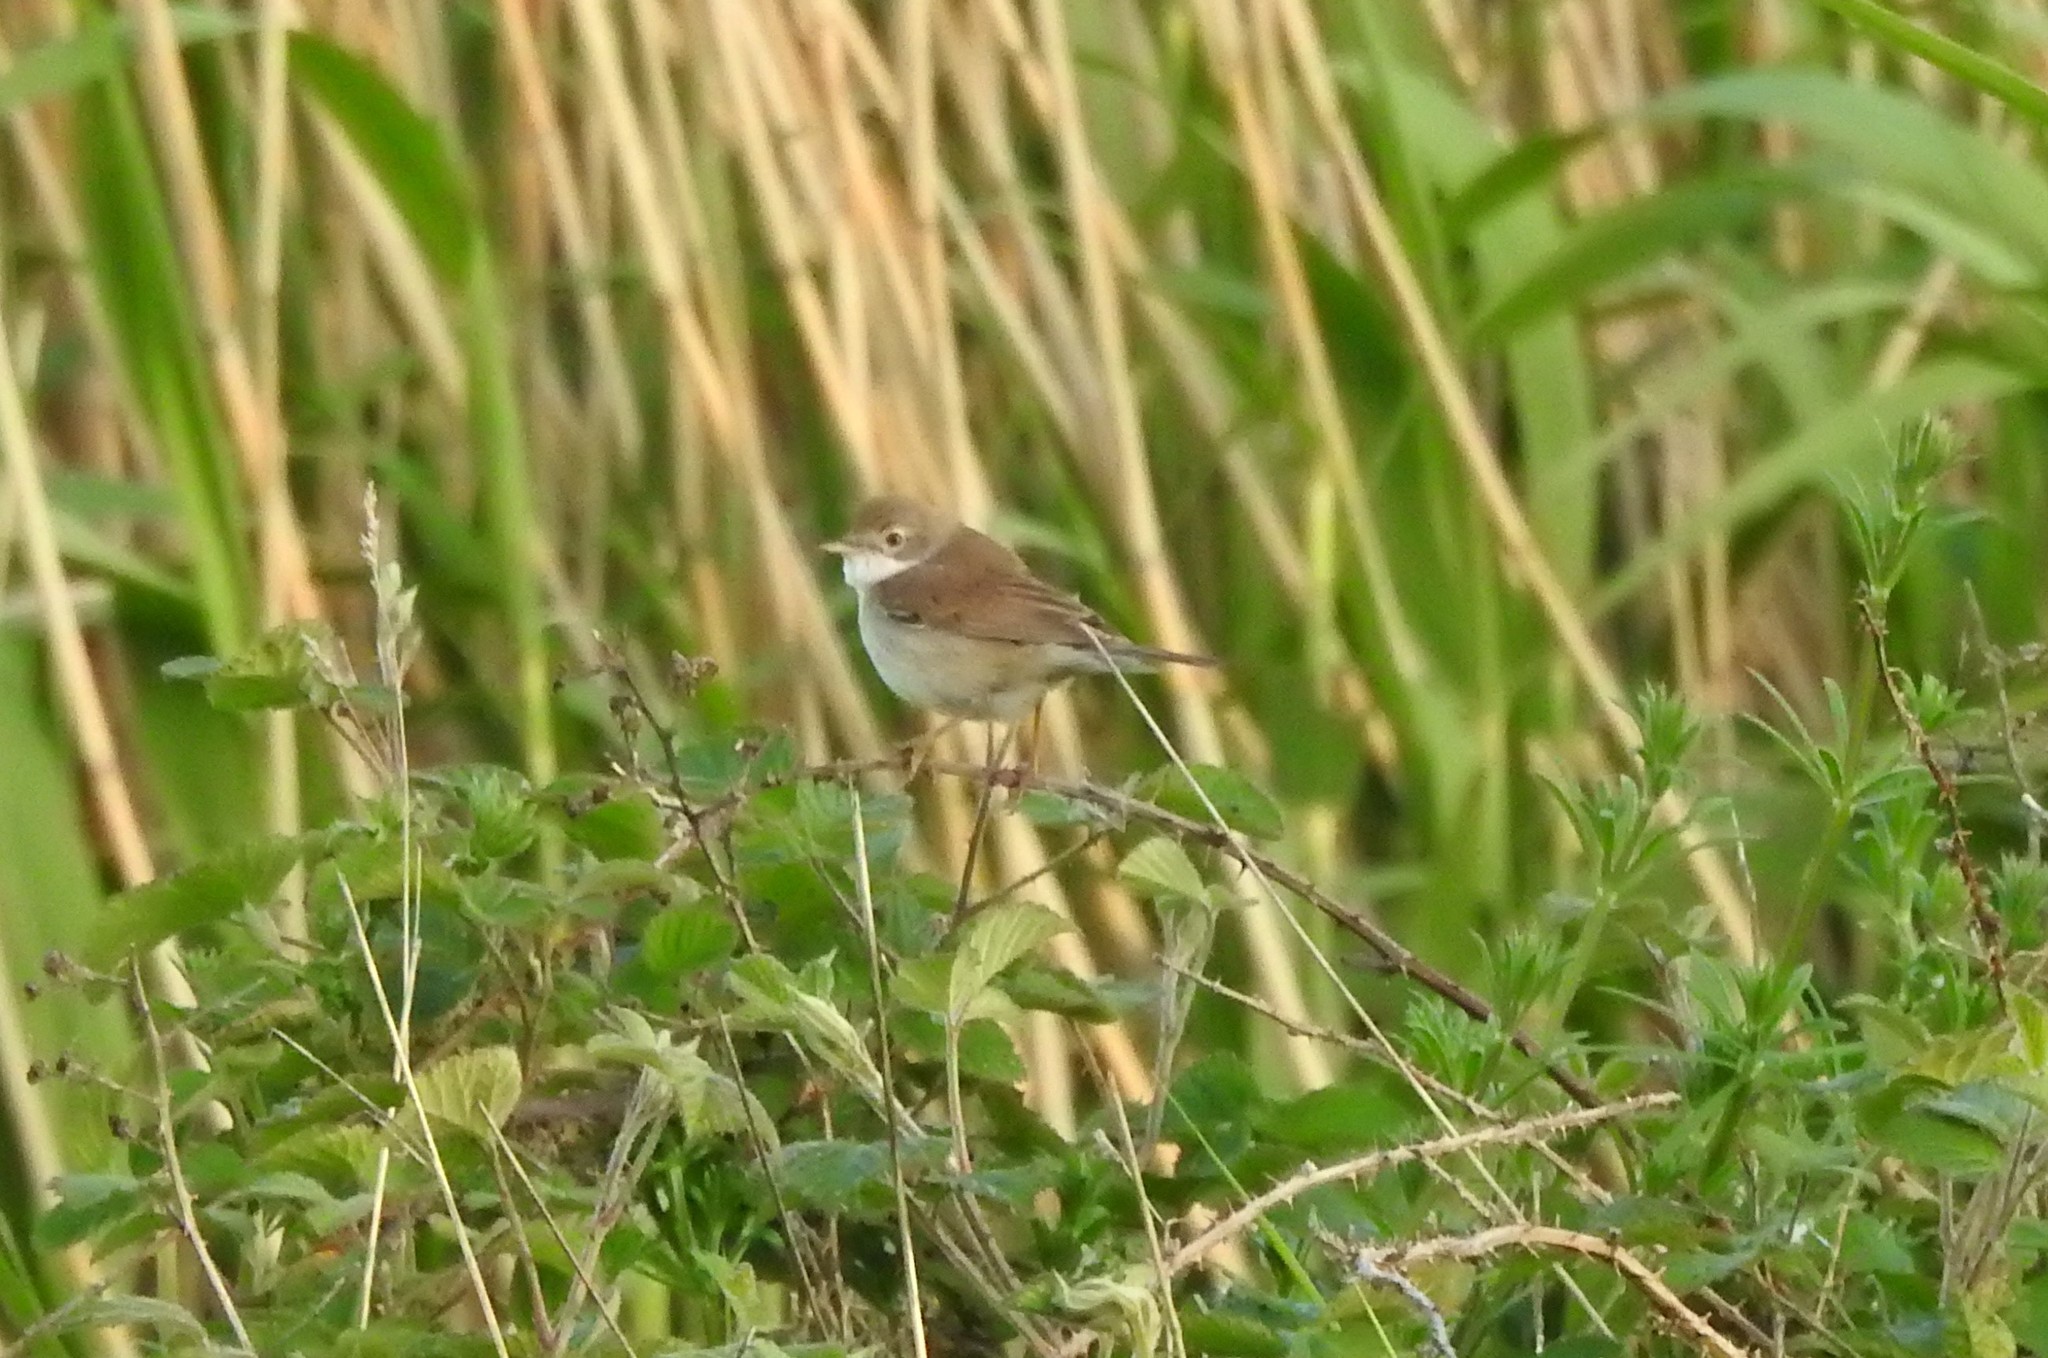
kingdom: Animalia
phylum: Chordata
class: Aves
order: Passeriformes
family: Sylviidae
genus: Sylvia
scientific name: Sylvia communis
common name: Common whitethroat
